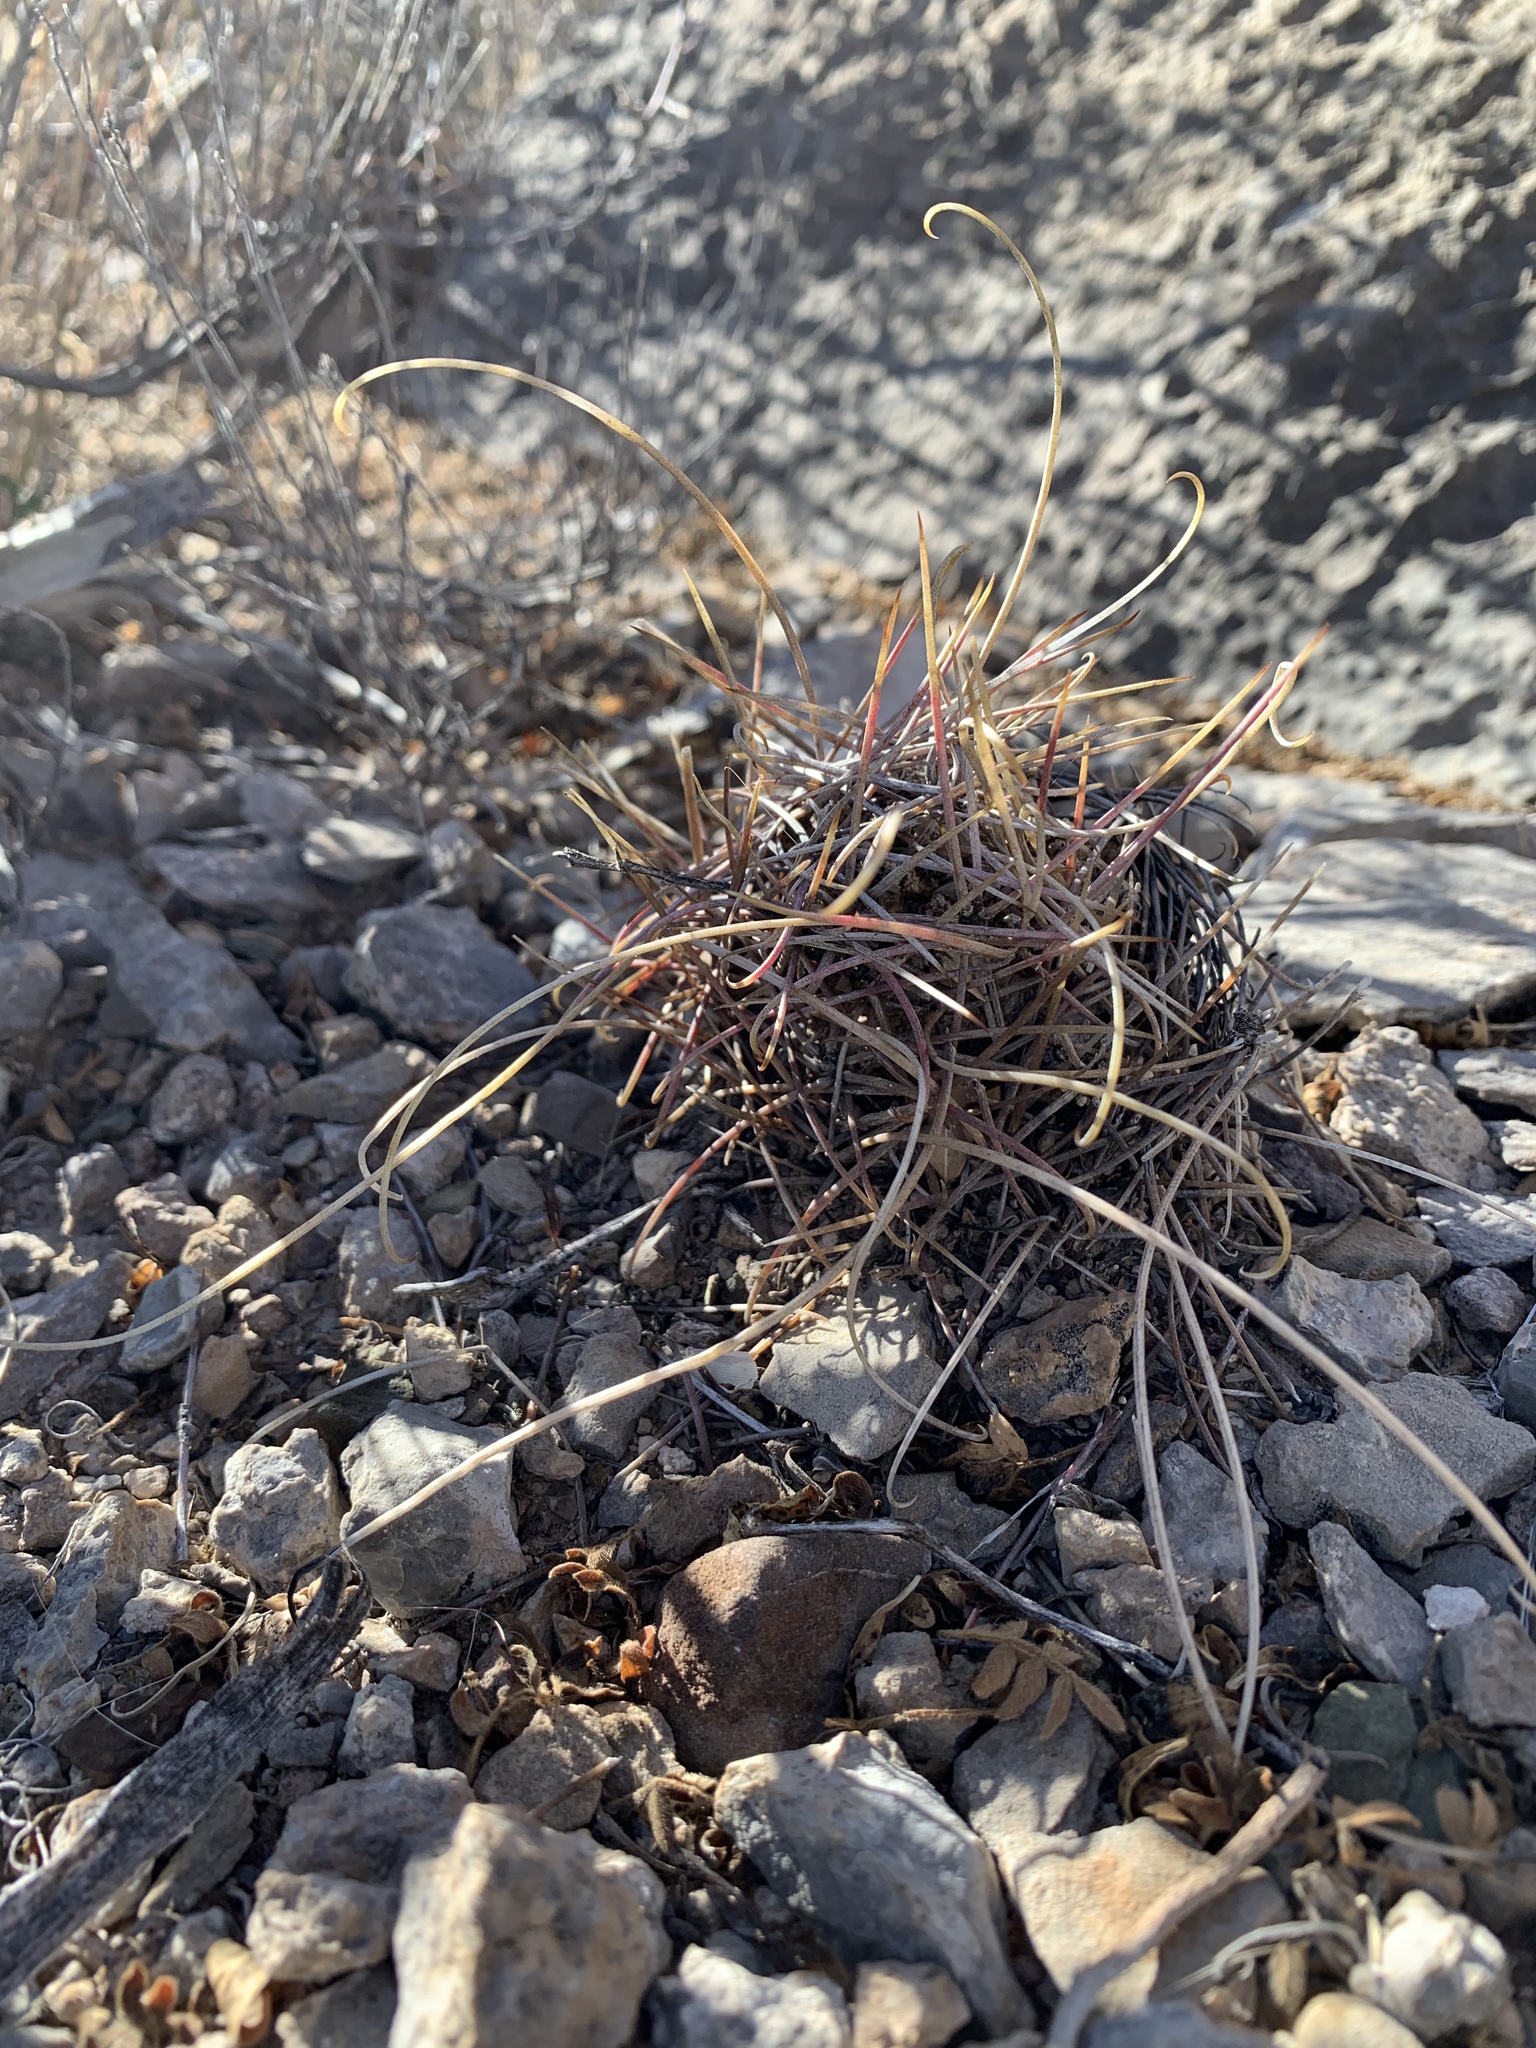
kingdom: Plantae
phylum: Tracheophyta
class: Magnoliopsida
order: Caryophyllales
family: Cactaceae
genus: Ferocactus
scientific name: Ferocactus uncinatus
